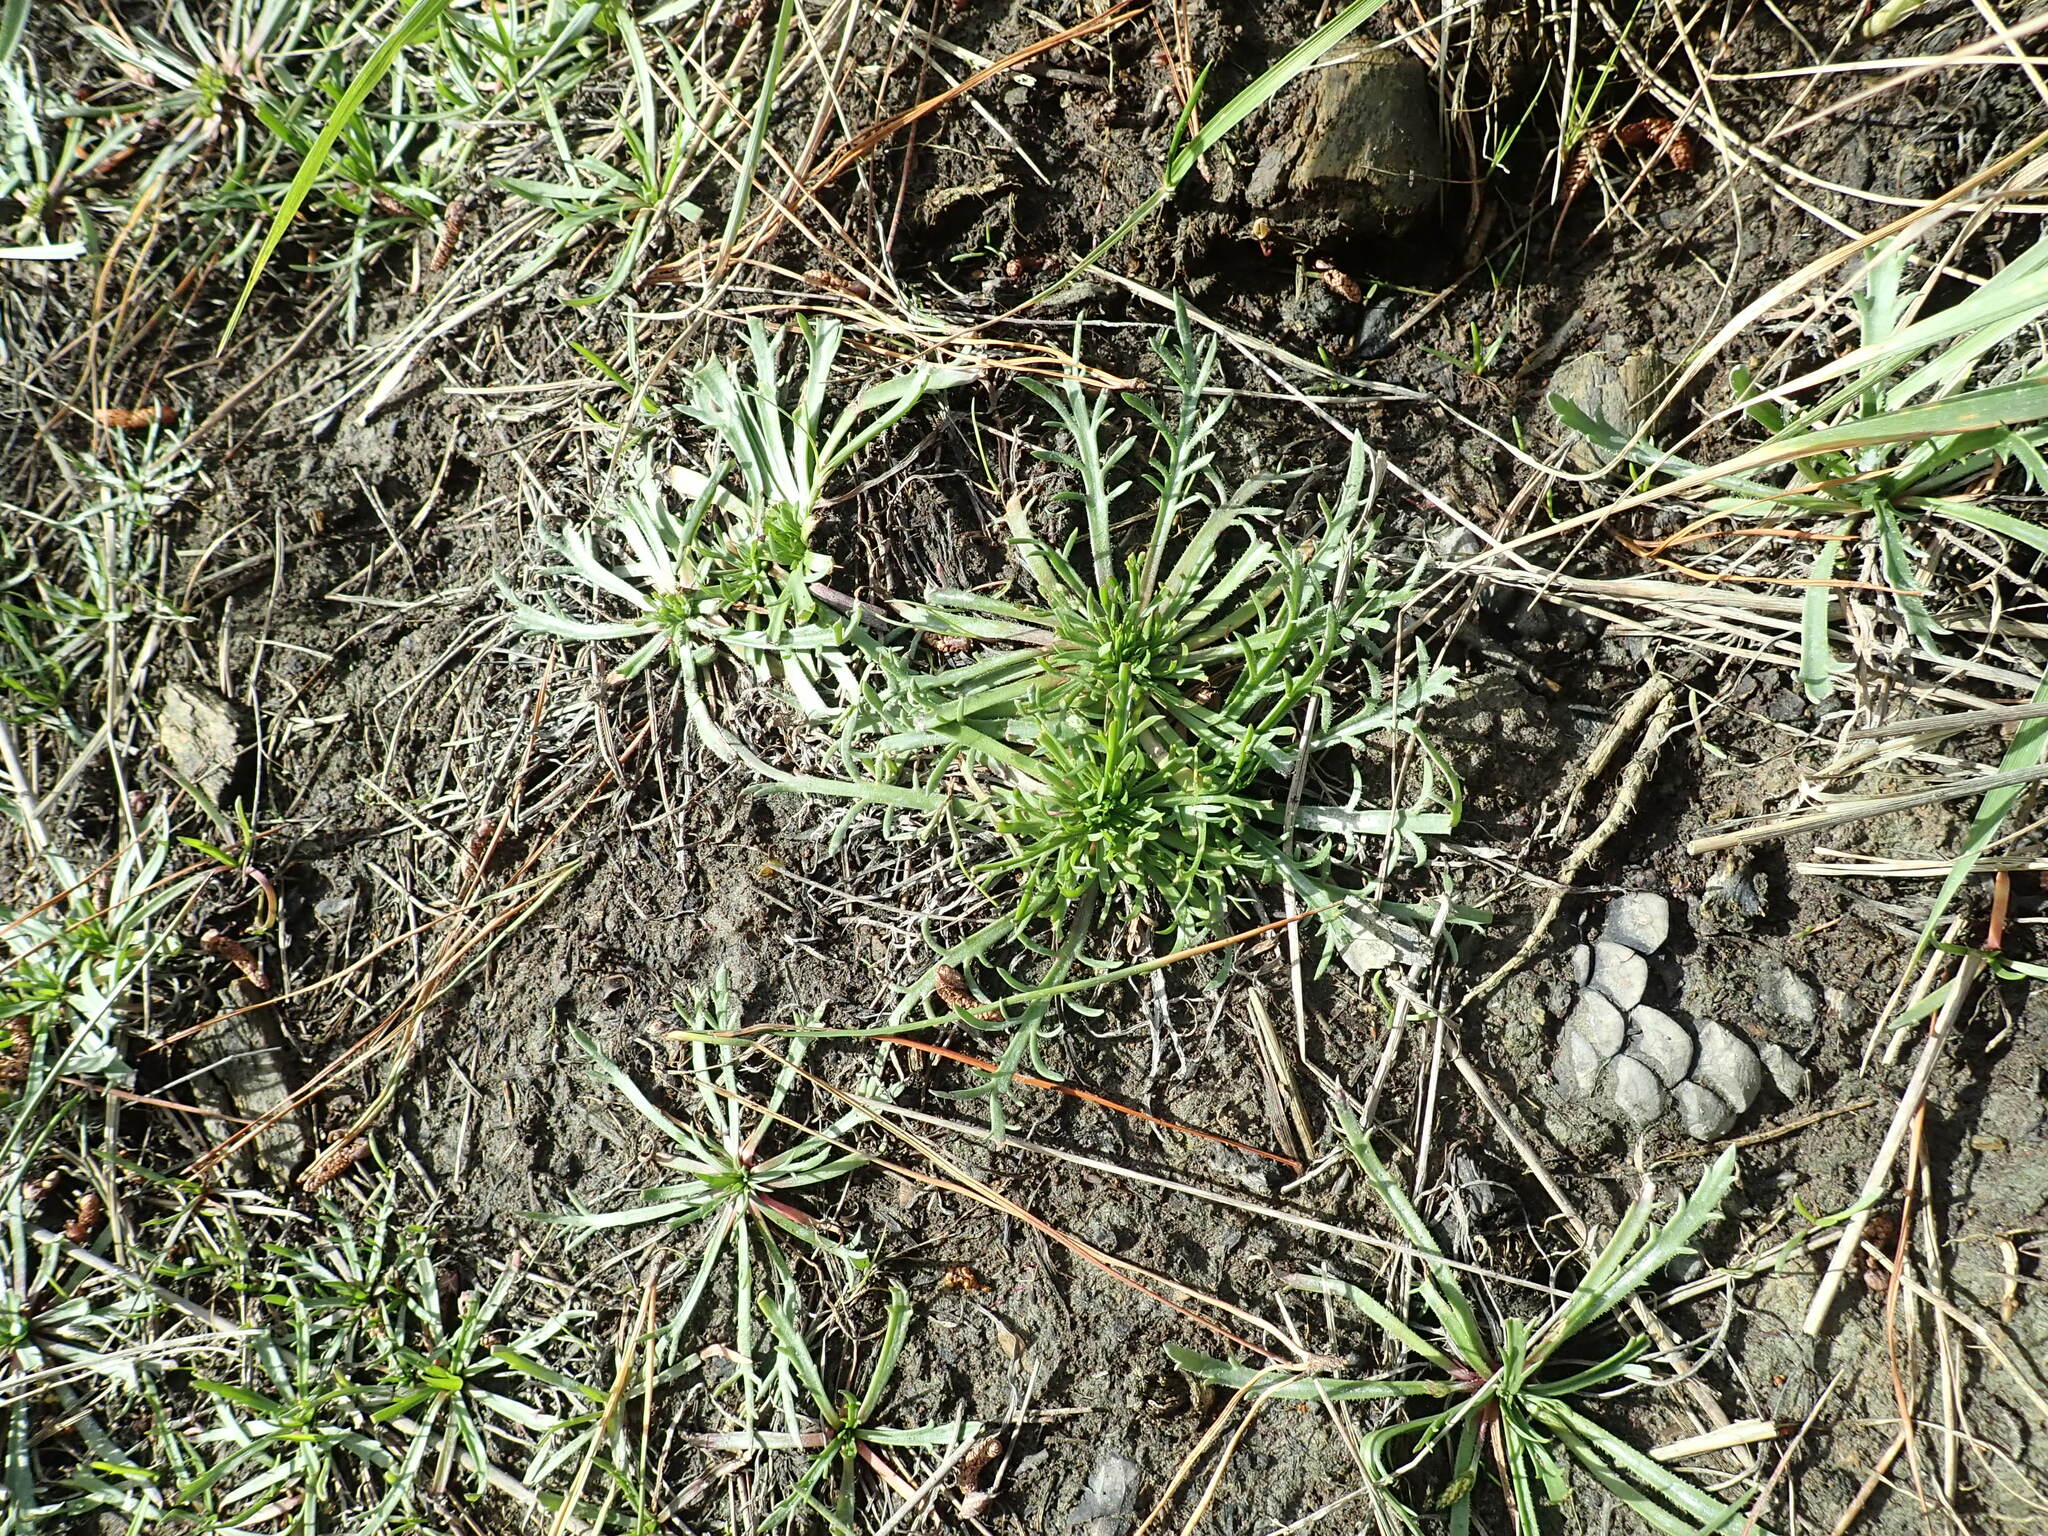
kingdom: Plantae
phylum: Tracheophyta
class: Magnoliopsida
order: Lamiales
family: Plantaginaceae
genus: Plantago
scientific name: Plantago coronopus
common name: Buck's-horn plantain
